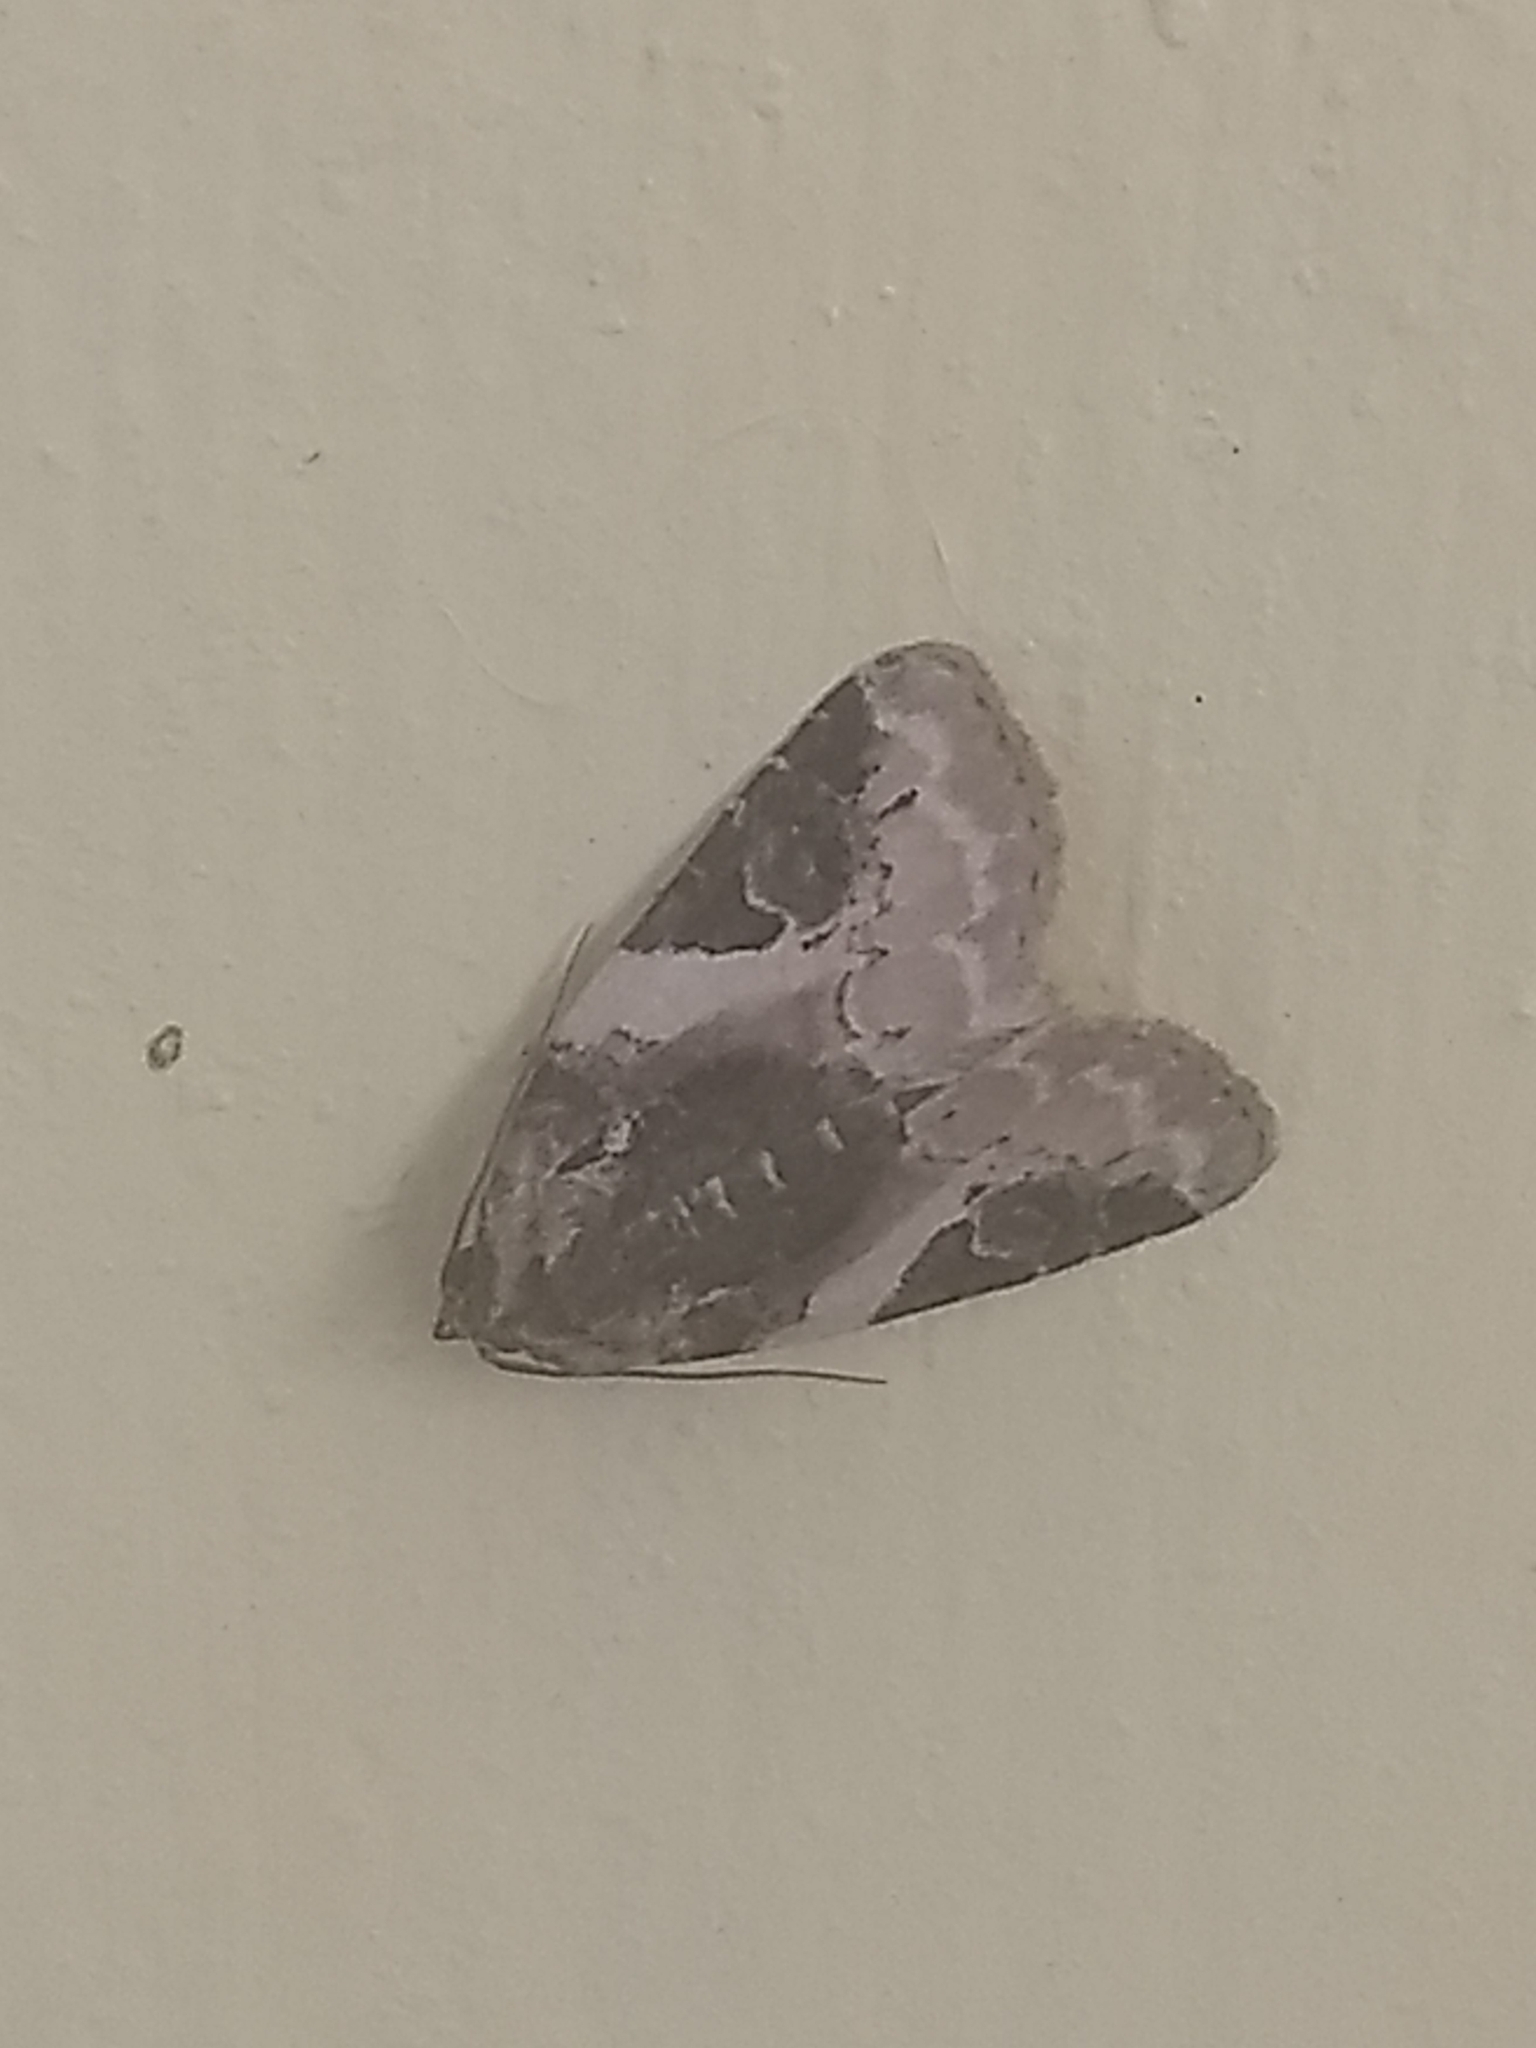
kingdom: Animalia
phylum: Arthropoda
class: Insecta
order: Lepidoptera
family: Noctuidae
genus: Pseudeustrotia
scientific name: Pseudeustrotia carneola
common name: Pink-barred lithacodia moth
